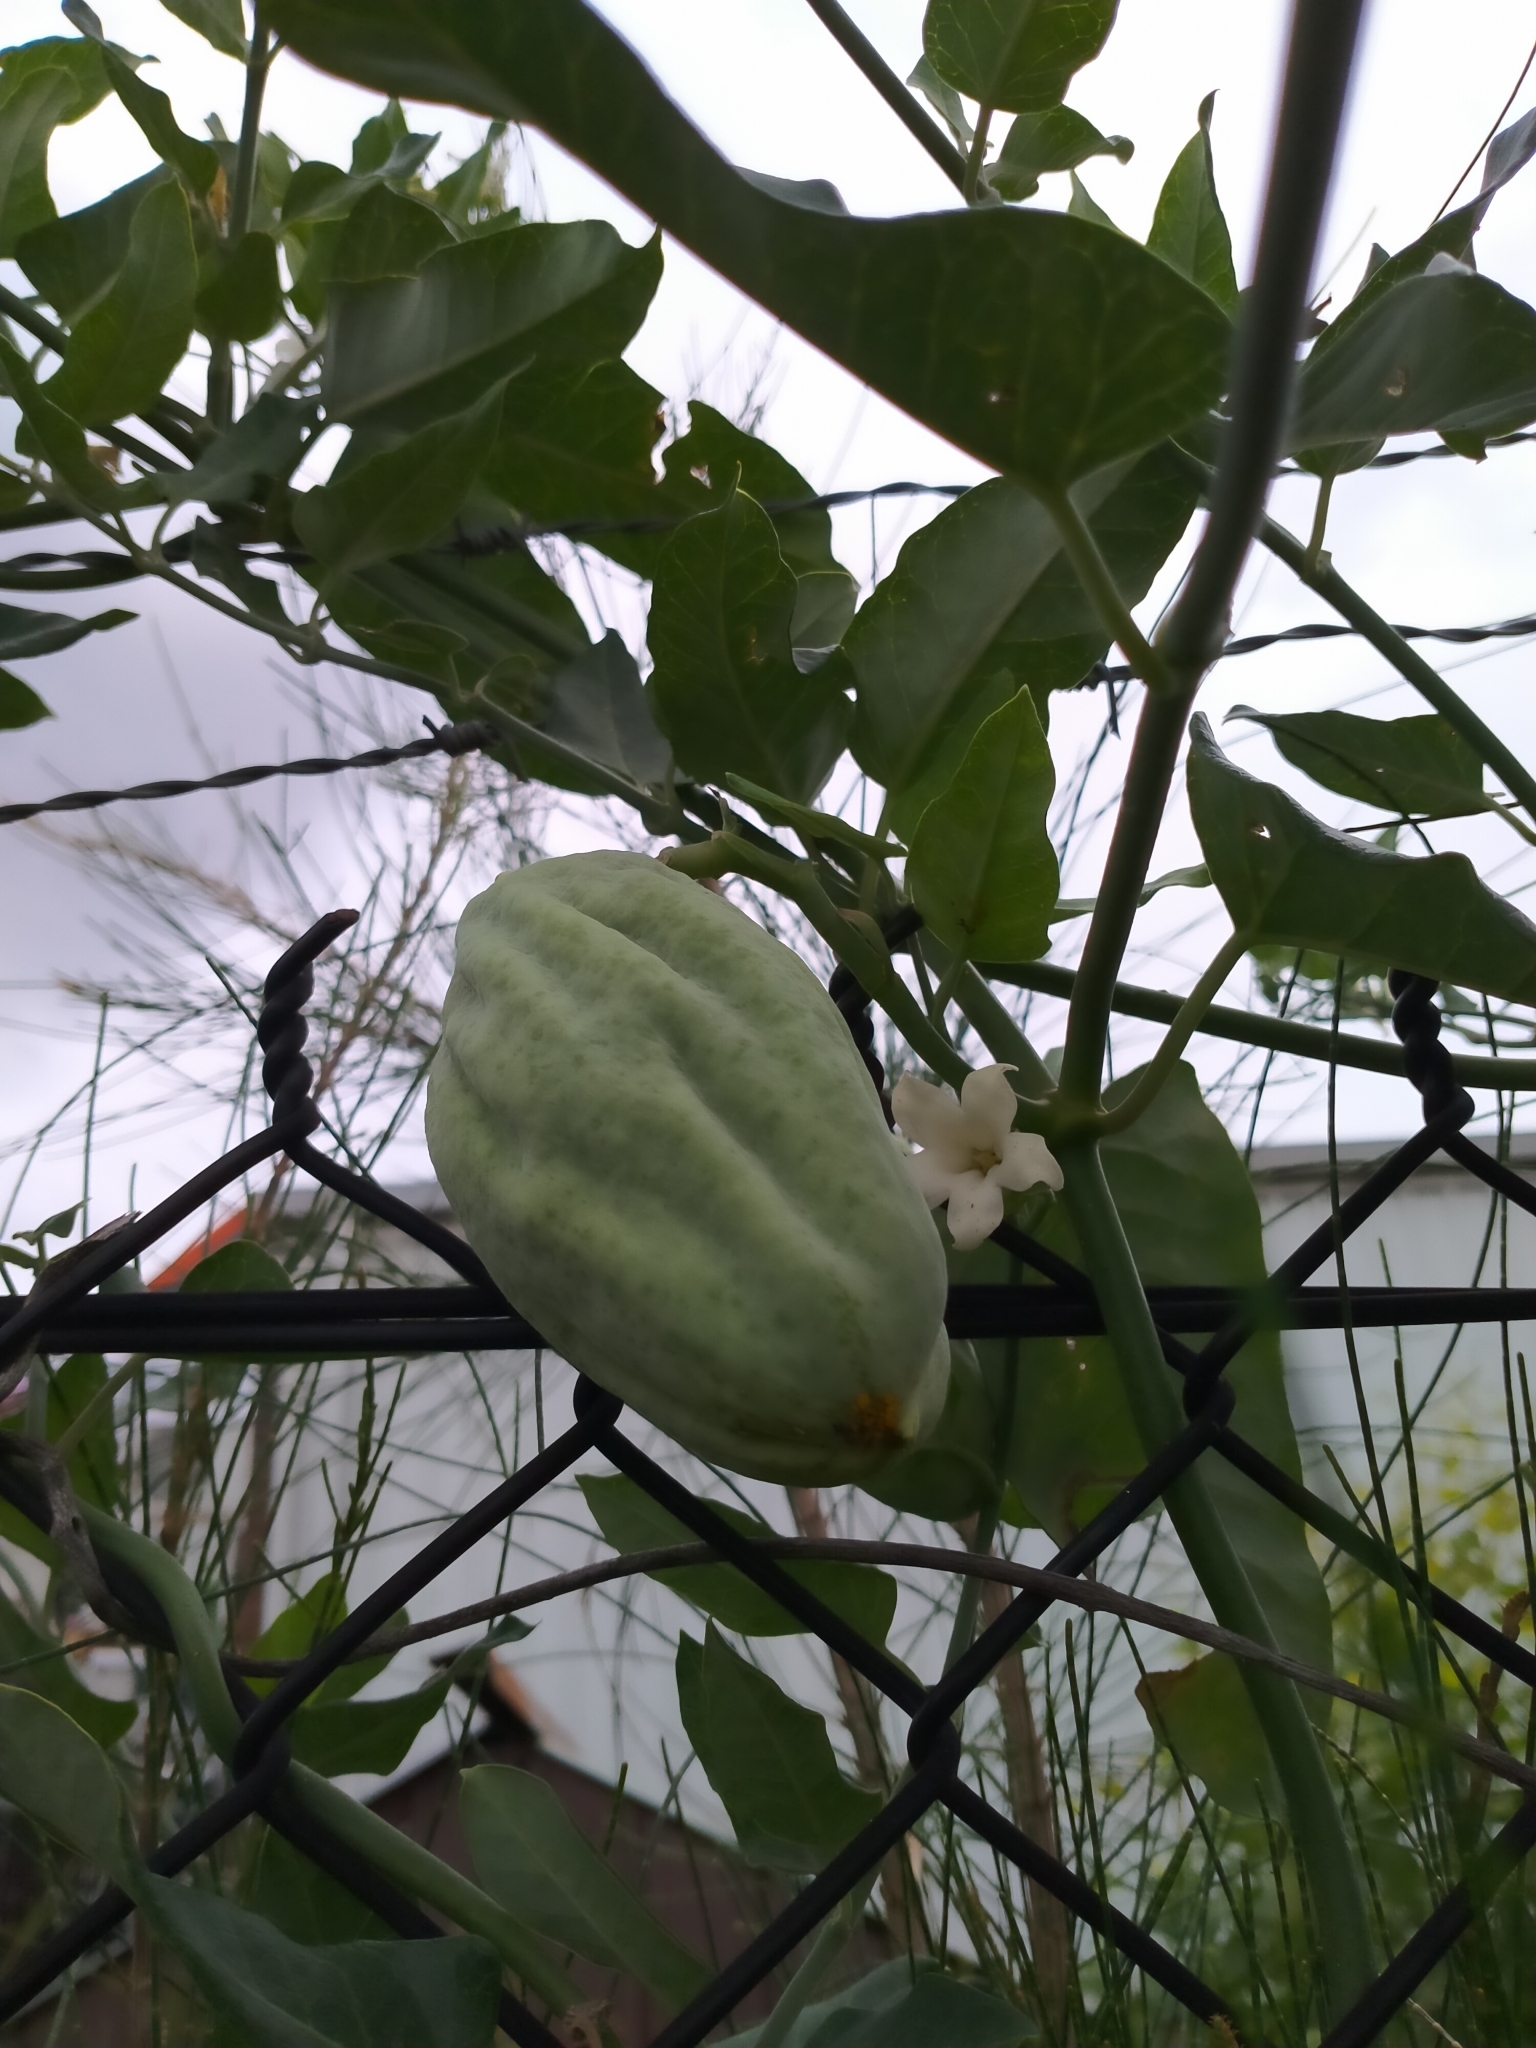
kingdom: Animalia
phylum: Arthropoda
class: Insecta
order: Hemiptera
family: Aphididae
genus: Aphis
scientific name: Aphis nerii
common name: Oleander aphid
